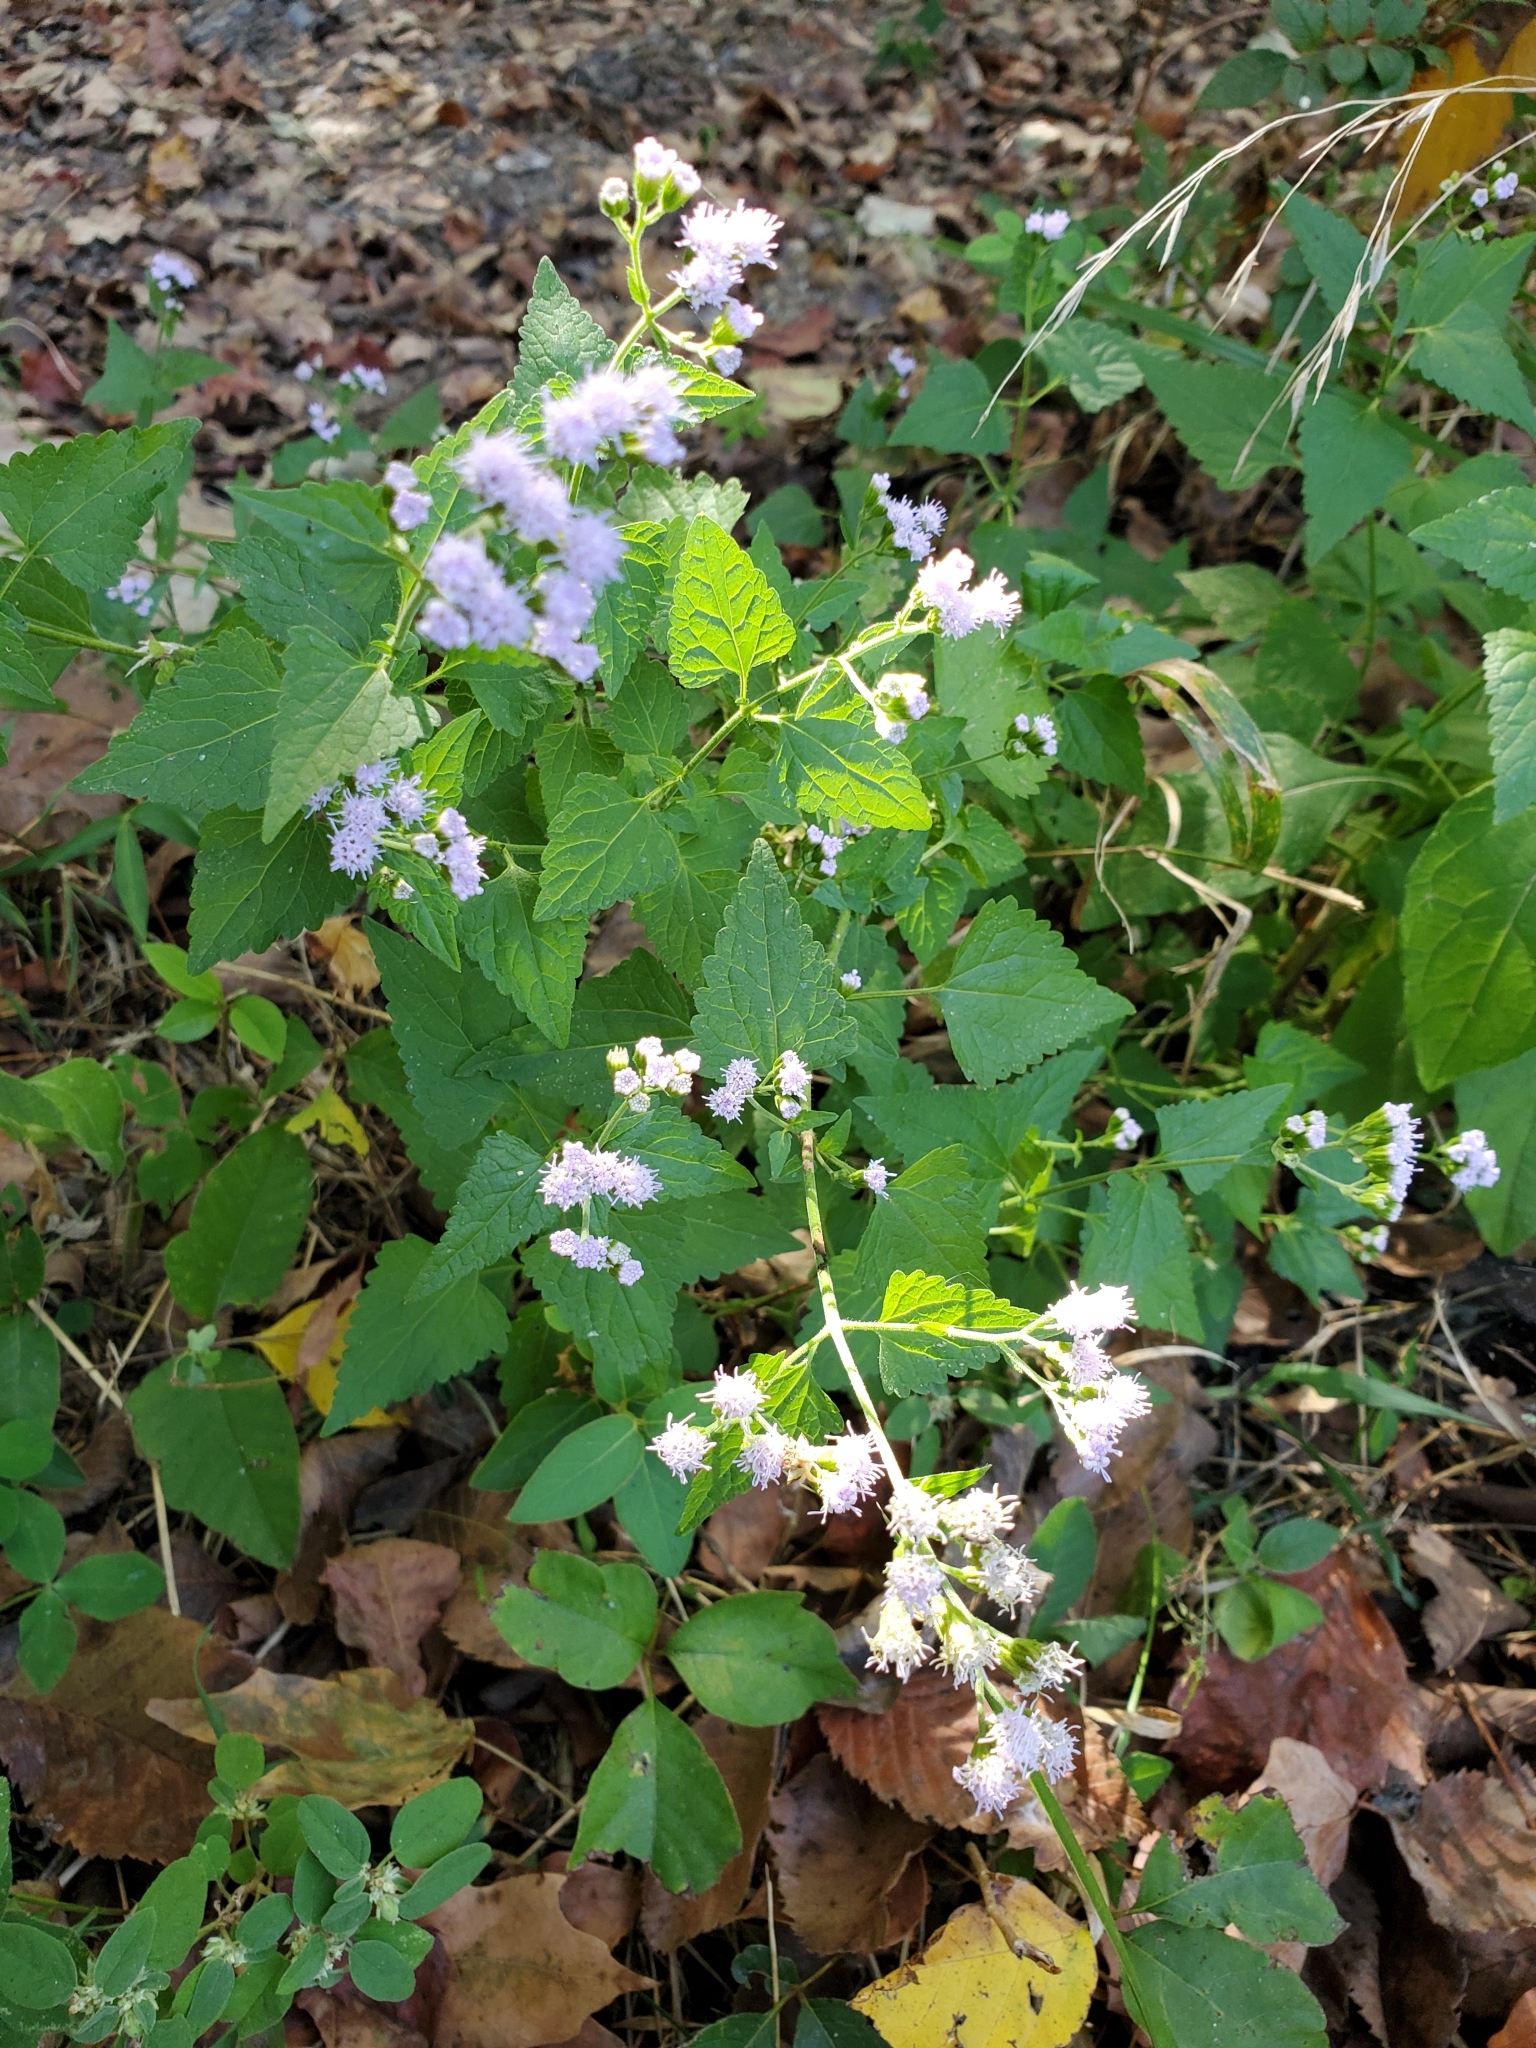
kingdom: Plantae
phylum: Tracheophyta
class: Magnoliopsida
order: Asterales
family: Asteraceae
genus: Conoclinium
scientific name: Conoclinium coelestinum
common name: Blue mistflower
